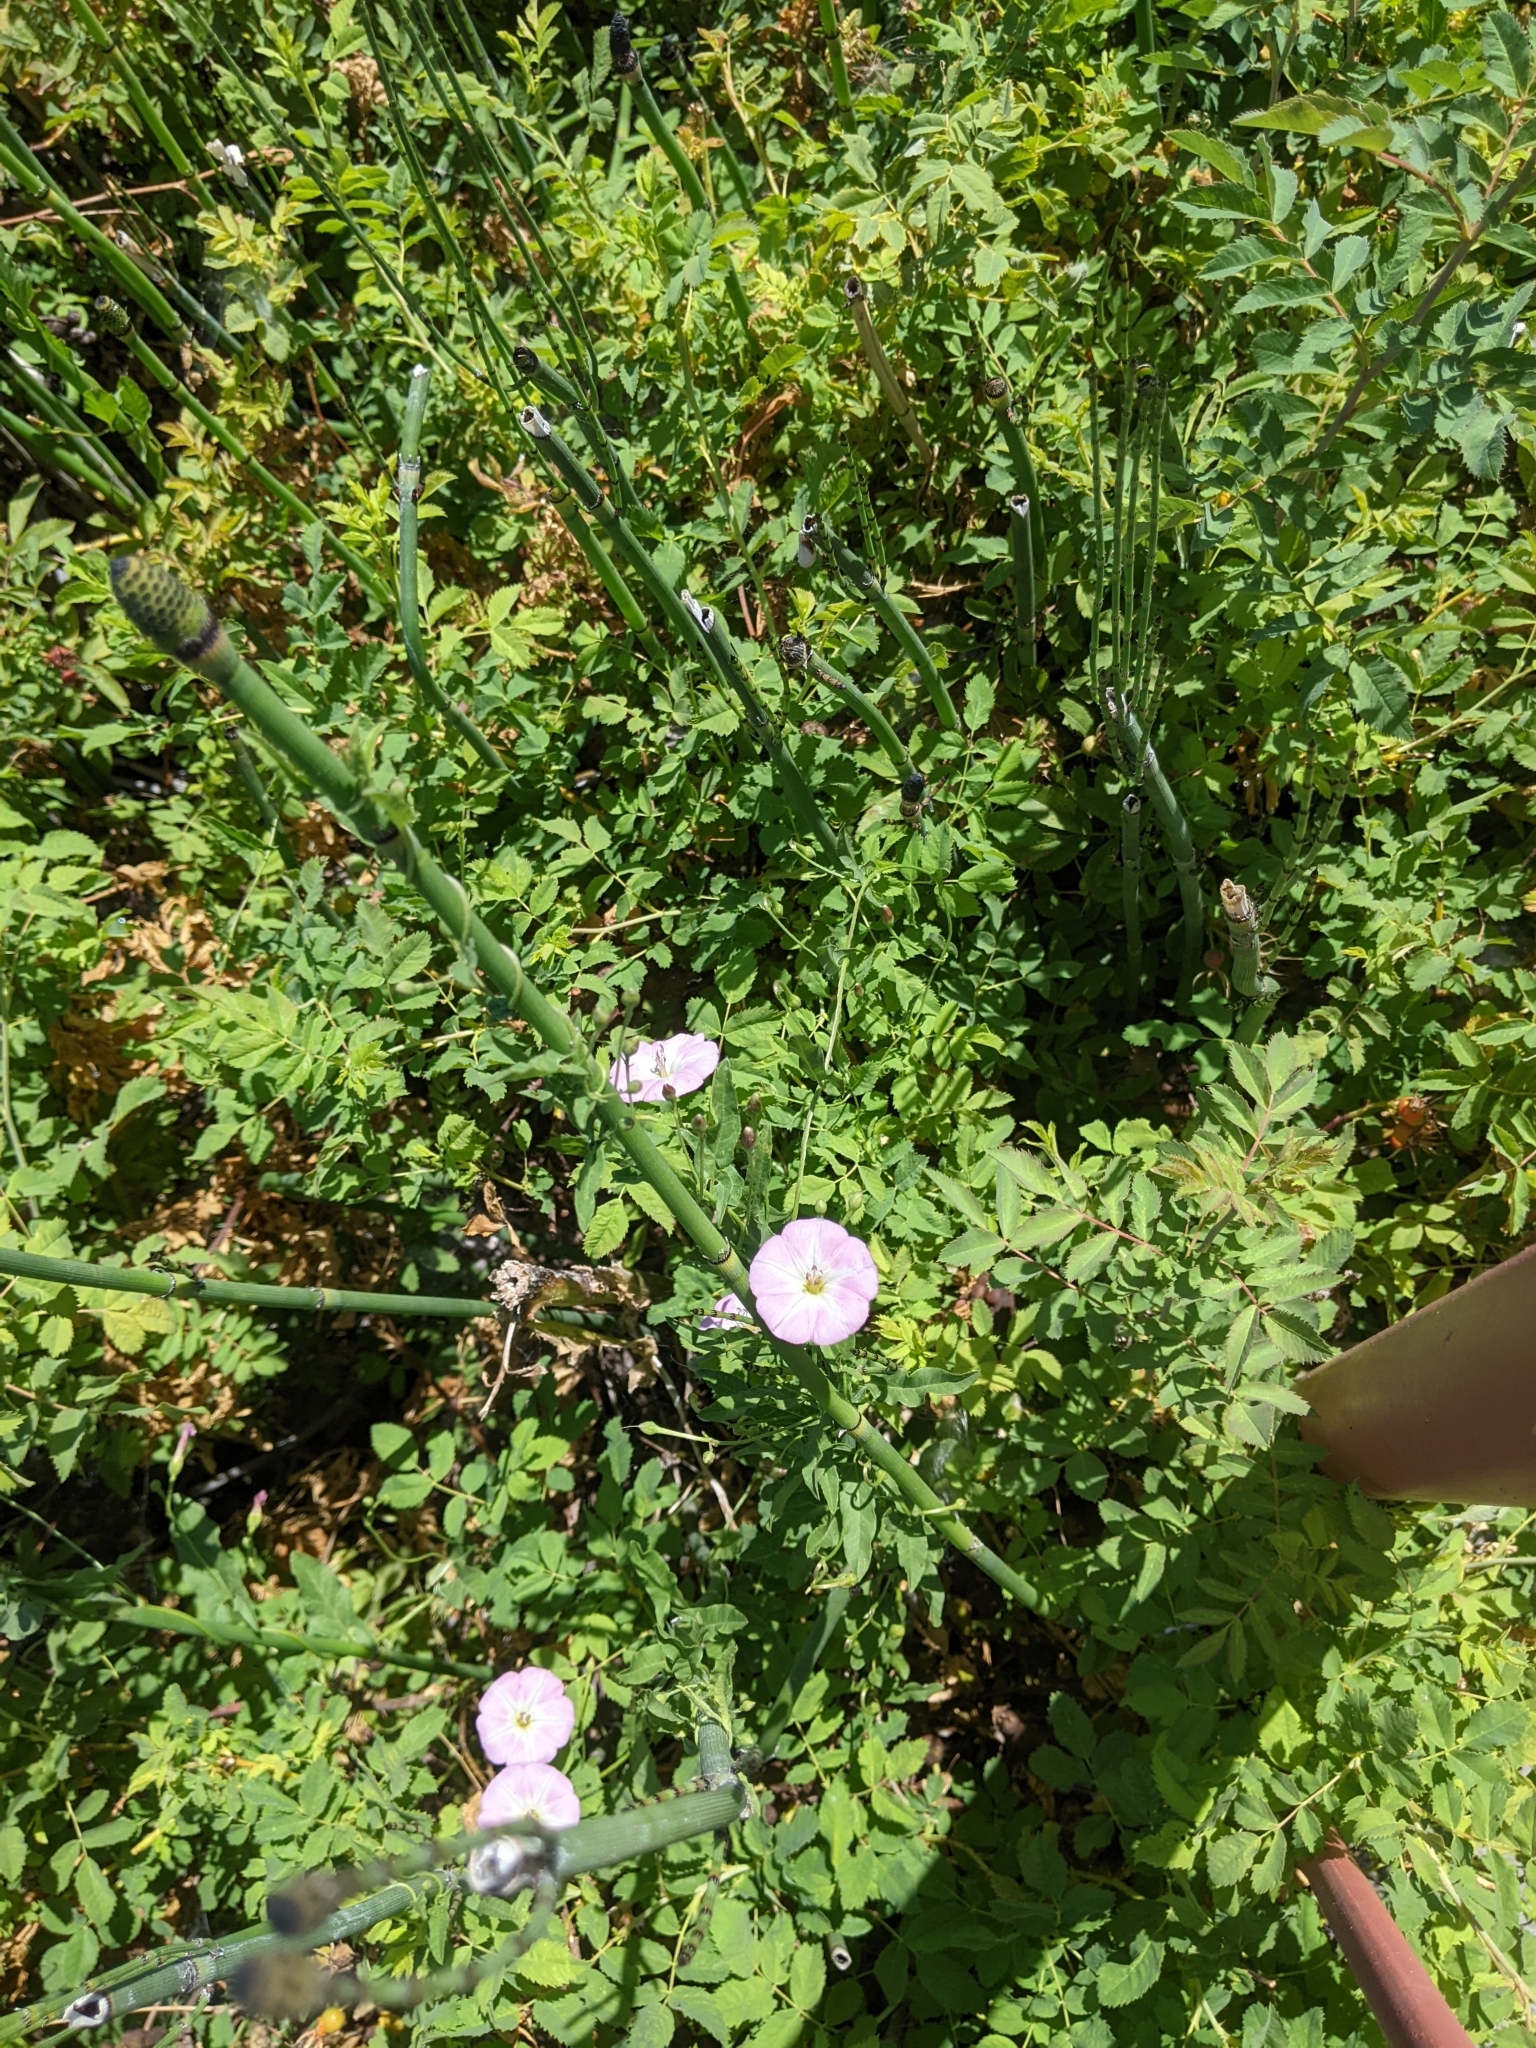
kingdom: Plantae
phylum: Tracheophyta
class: Magnoliopsida
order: Solanales
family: Convolvulaceae
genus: Convolvulus
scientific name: Convolvulus arvensis
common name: Field bindweed
